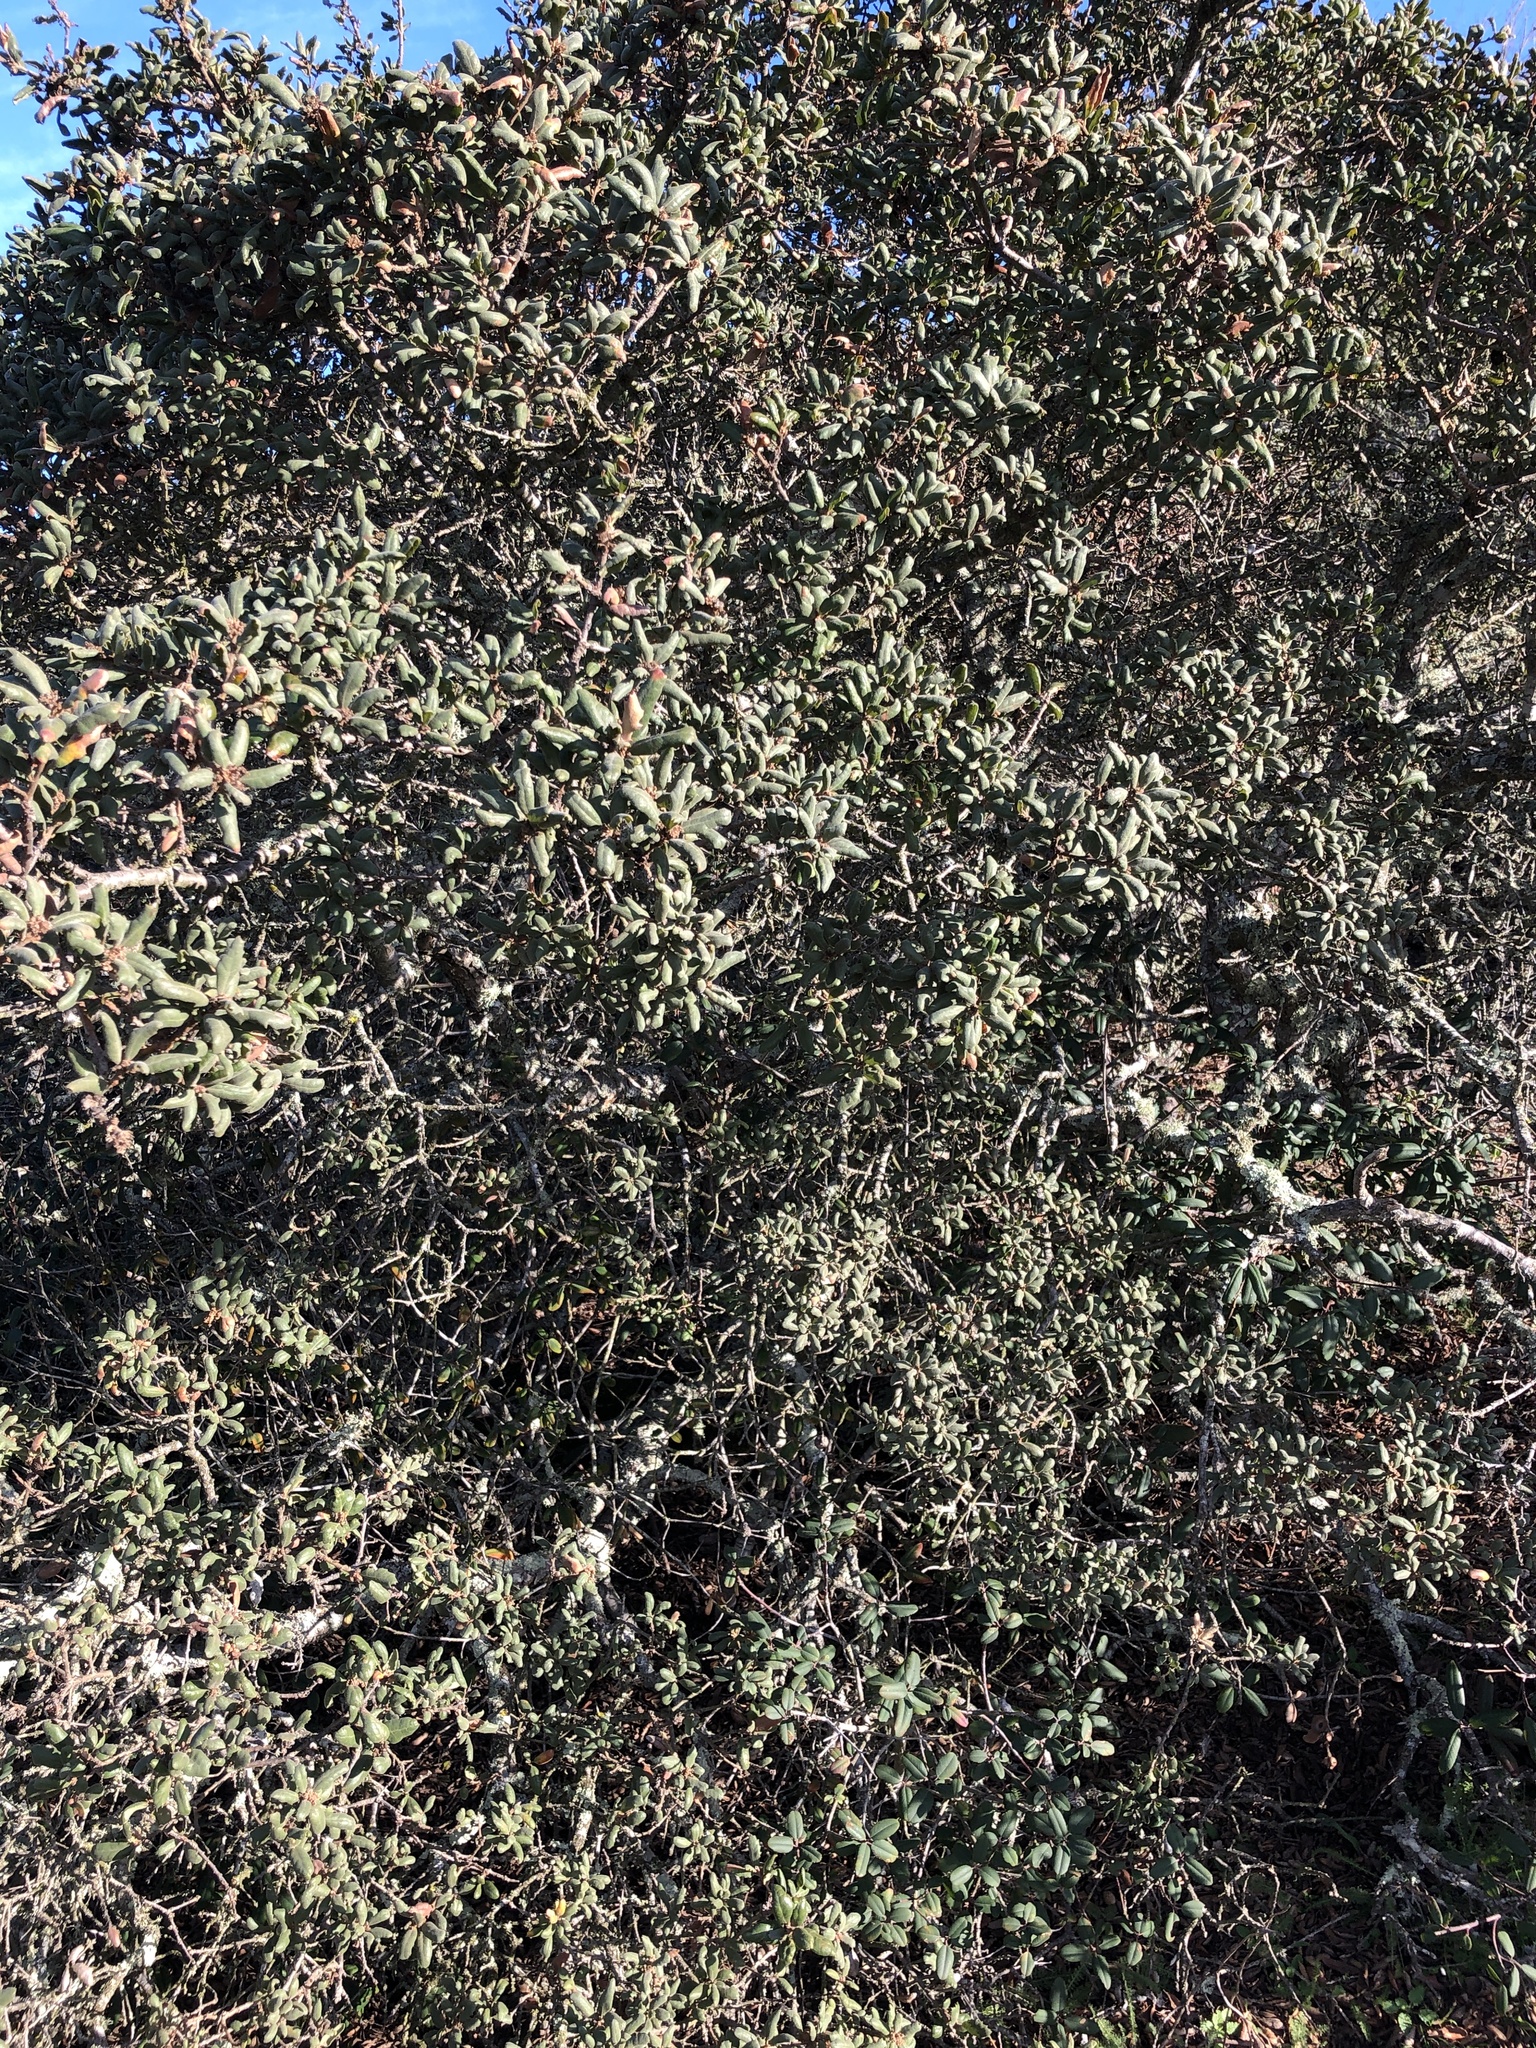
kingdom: Plantae
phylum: Tracheophyta
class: Magnoliopsida
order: Fagales
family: Fagaceae
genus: Quercus
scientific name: Quercus durata
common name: Leather oak
